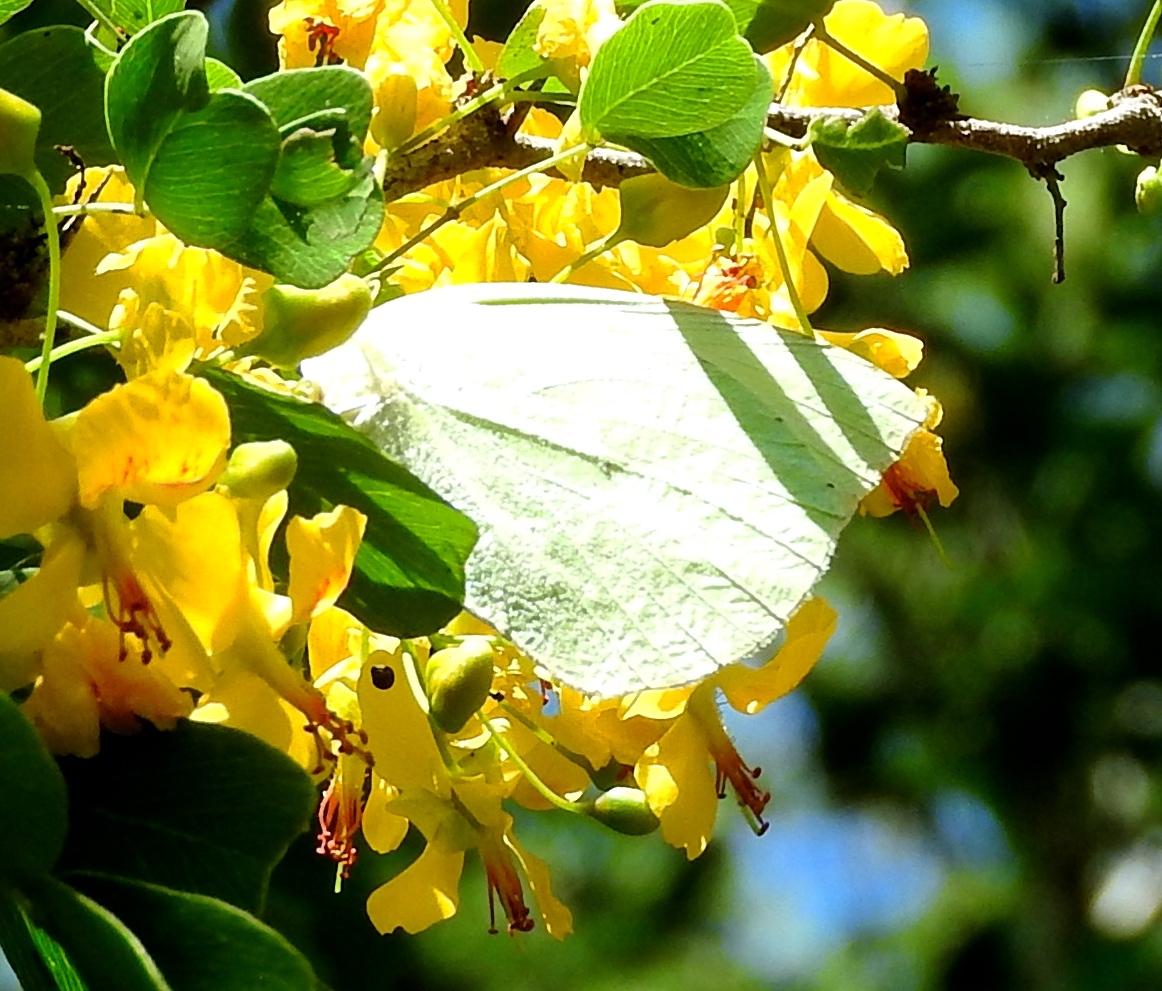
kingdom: Animalia
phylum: Arthropoda
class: Insecta
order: Lepidoptera
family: Pieridae
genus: Kricogonia
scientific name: Kricogonia lyside
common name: Guayacan sulphur,
